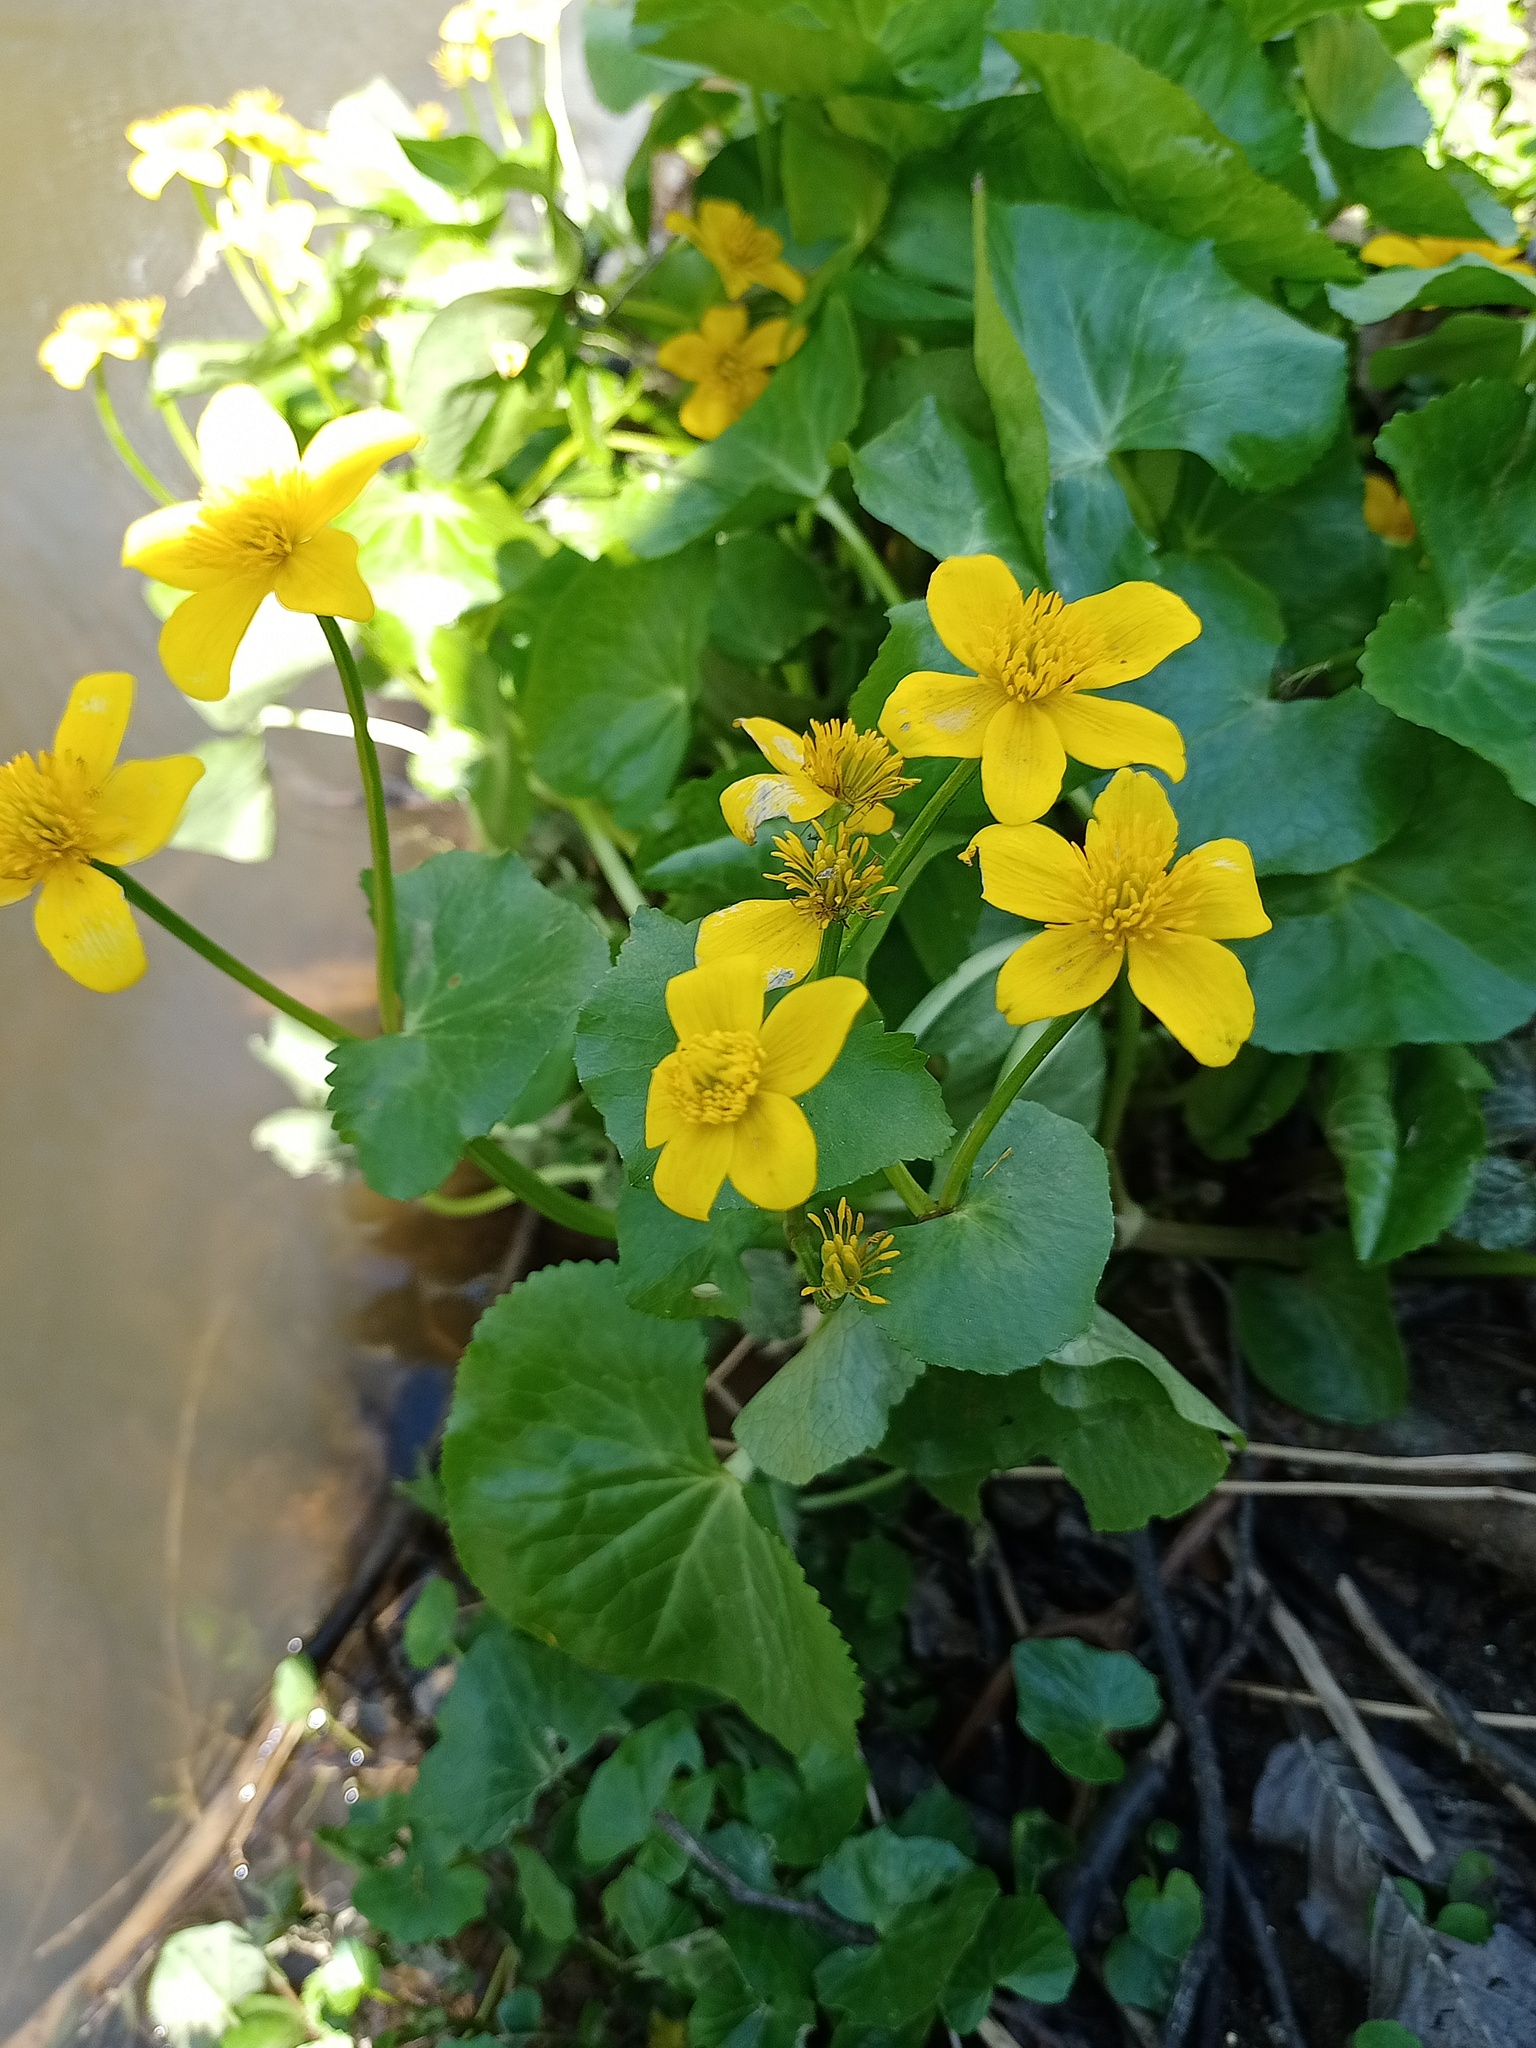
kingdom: Plantae
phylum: Tracheophyta
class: Magnoliopsida
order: Ranunculales
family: Ranunculaceae
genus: Caltha
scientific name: Caltha palustris
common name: Marsh marigold
